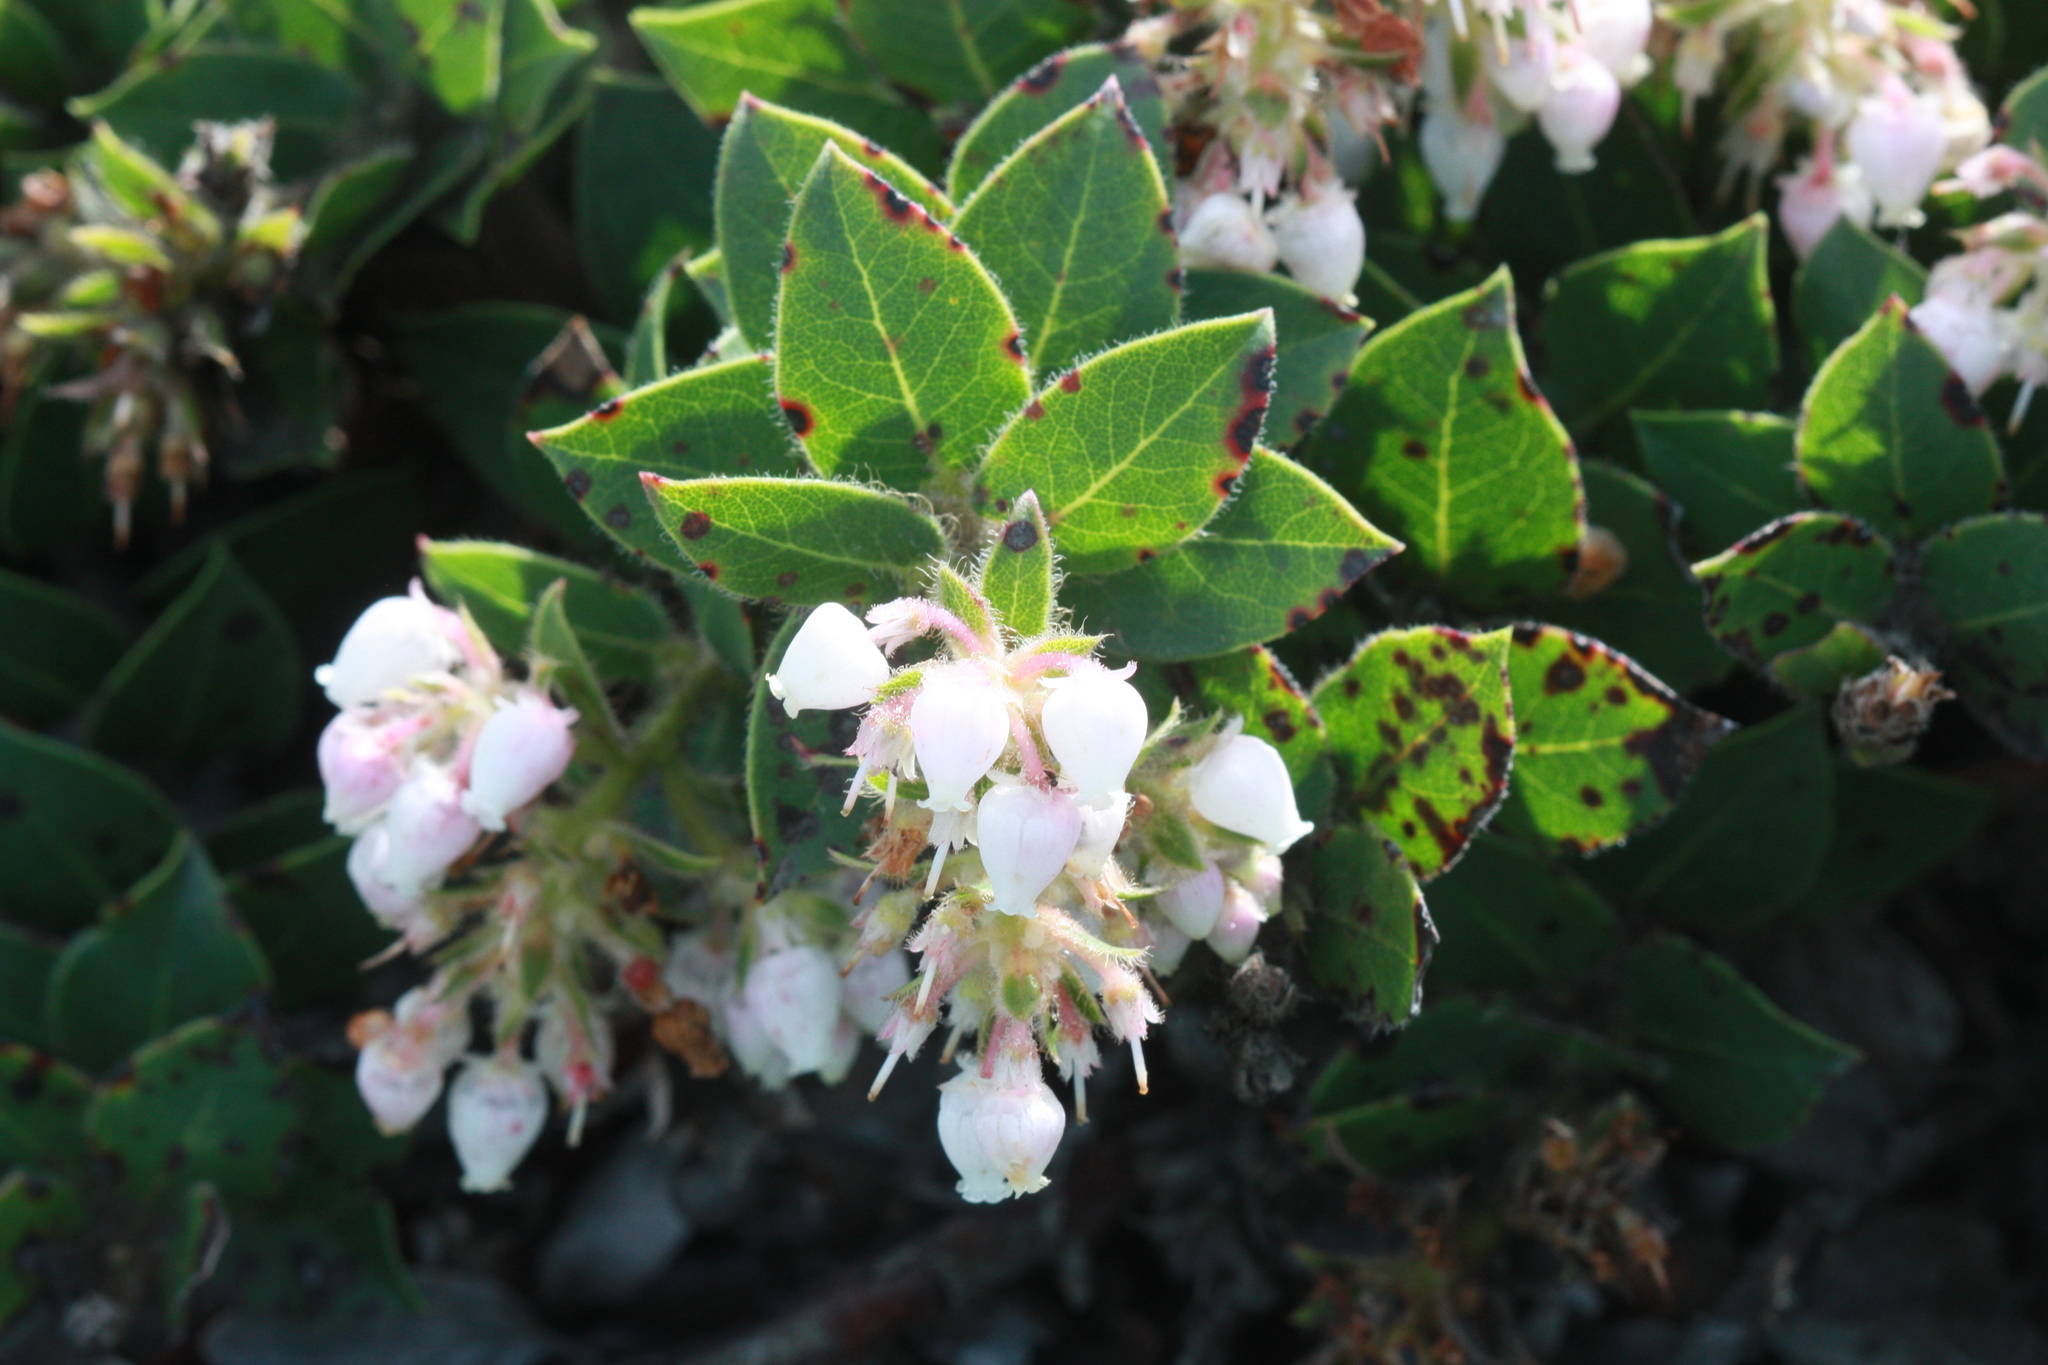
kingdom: Plantae
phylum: Tracheophyta
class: Magnoliopsida
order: Ericales
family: Ericaceae
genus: Arctostaphylos
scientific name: Arctostaphylos imbricata
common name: San bruno mountain manzanita
